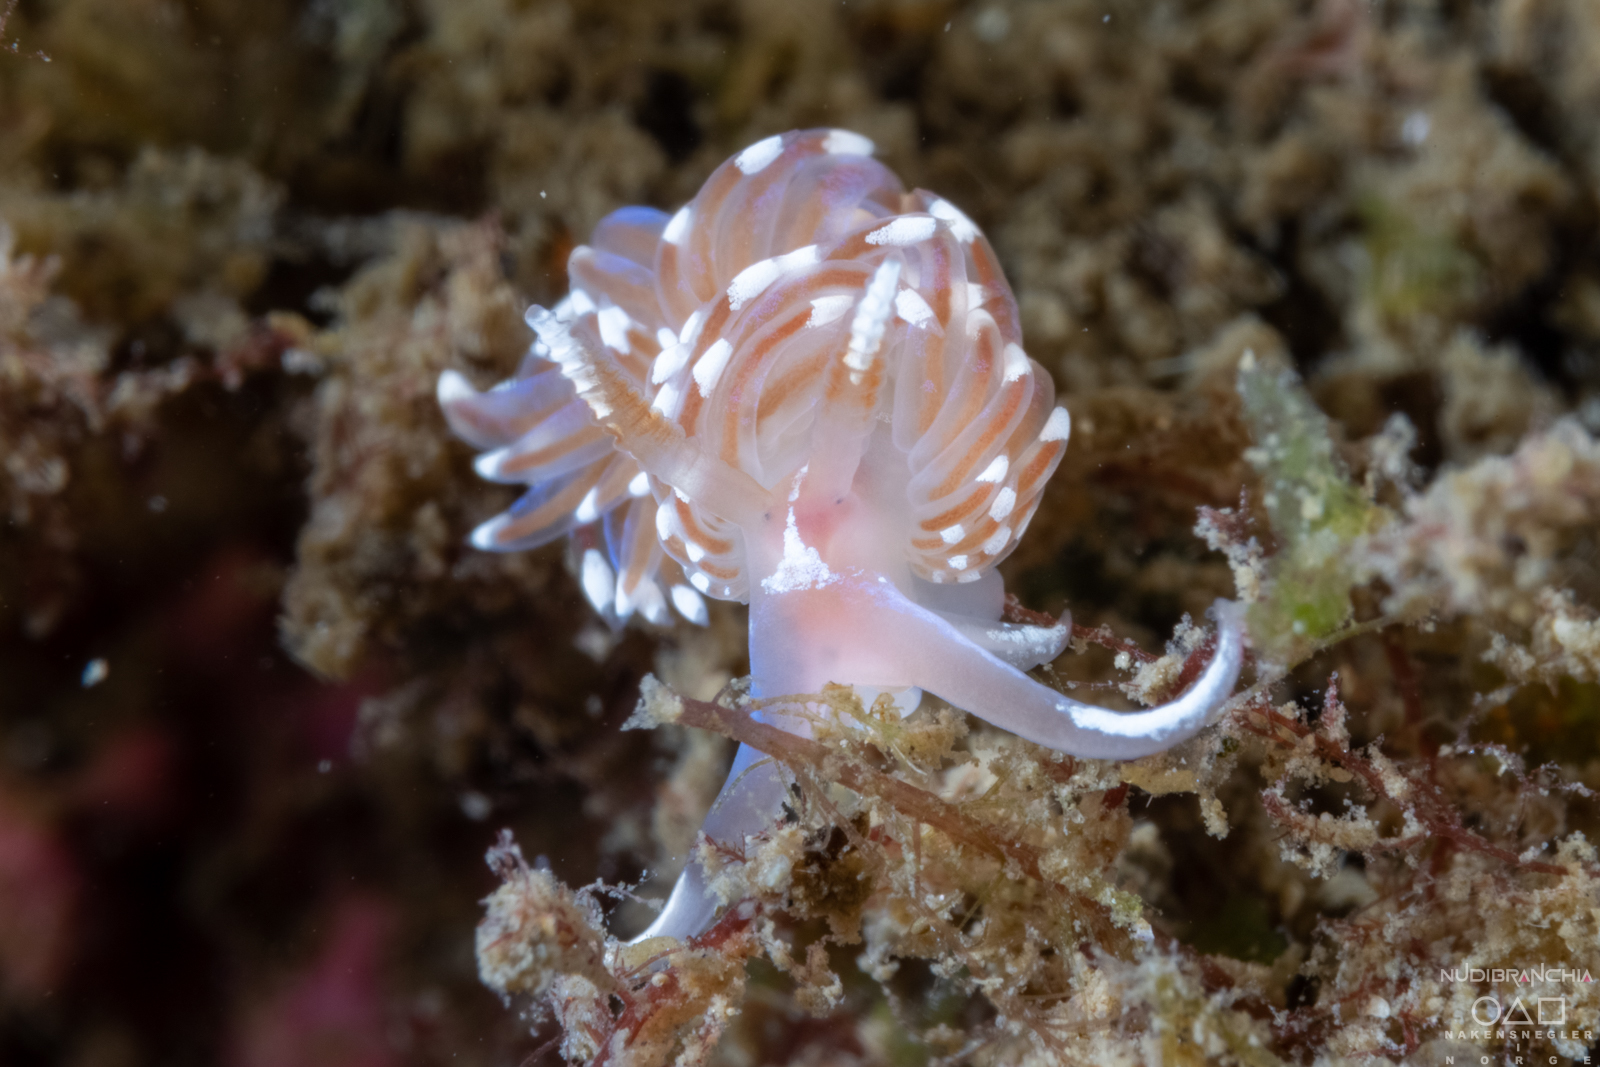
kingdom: Animalia
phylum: Mollusca
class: Gastropoda
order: Nudibranchia
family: Facelinidae
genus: Facelina
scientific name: Facelina bostoniensis
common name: Boston facelina
